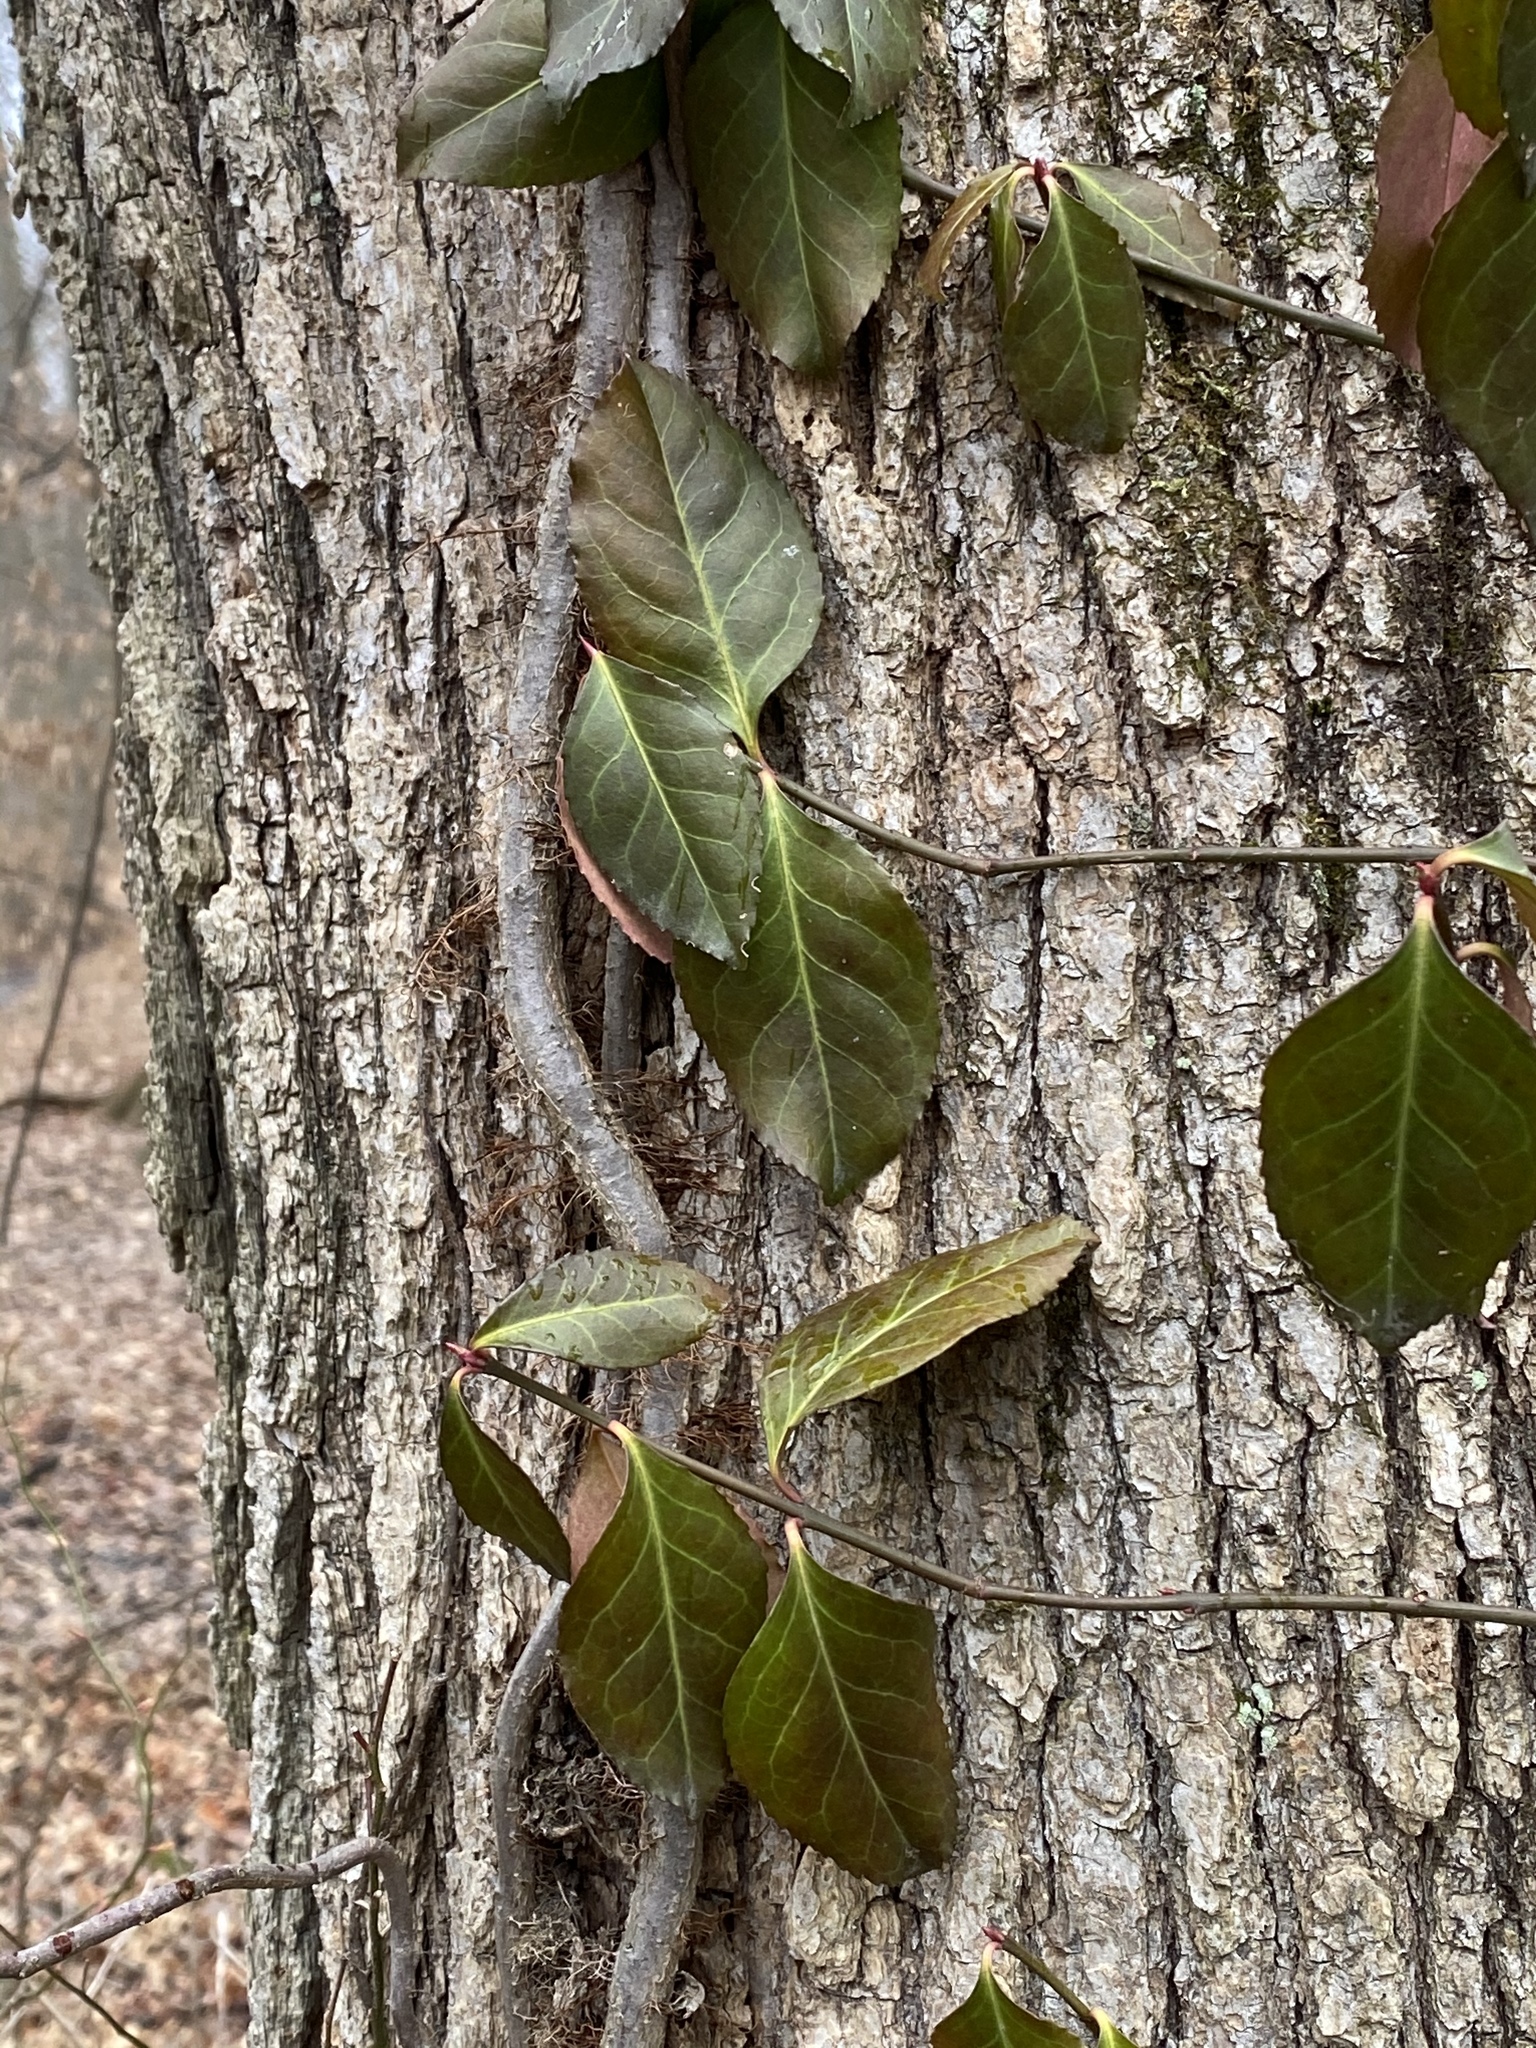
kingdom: Plantae
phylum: Tracheophyta
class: Magnoliopsida
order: Celastrales
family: Celastraceae
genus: Euonymus
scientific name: Euonymus fortunei
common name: Climbing euonymus
